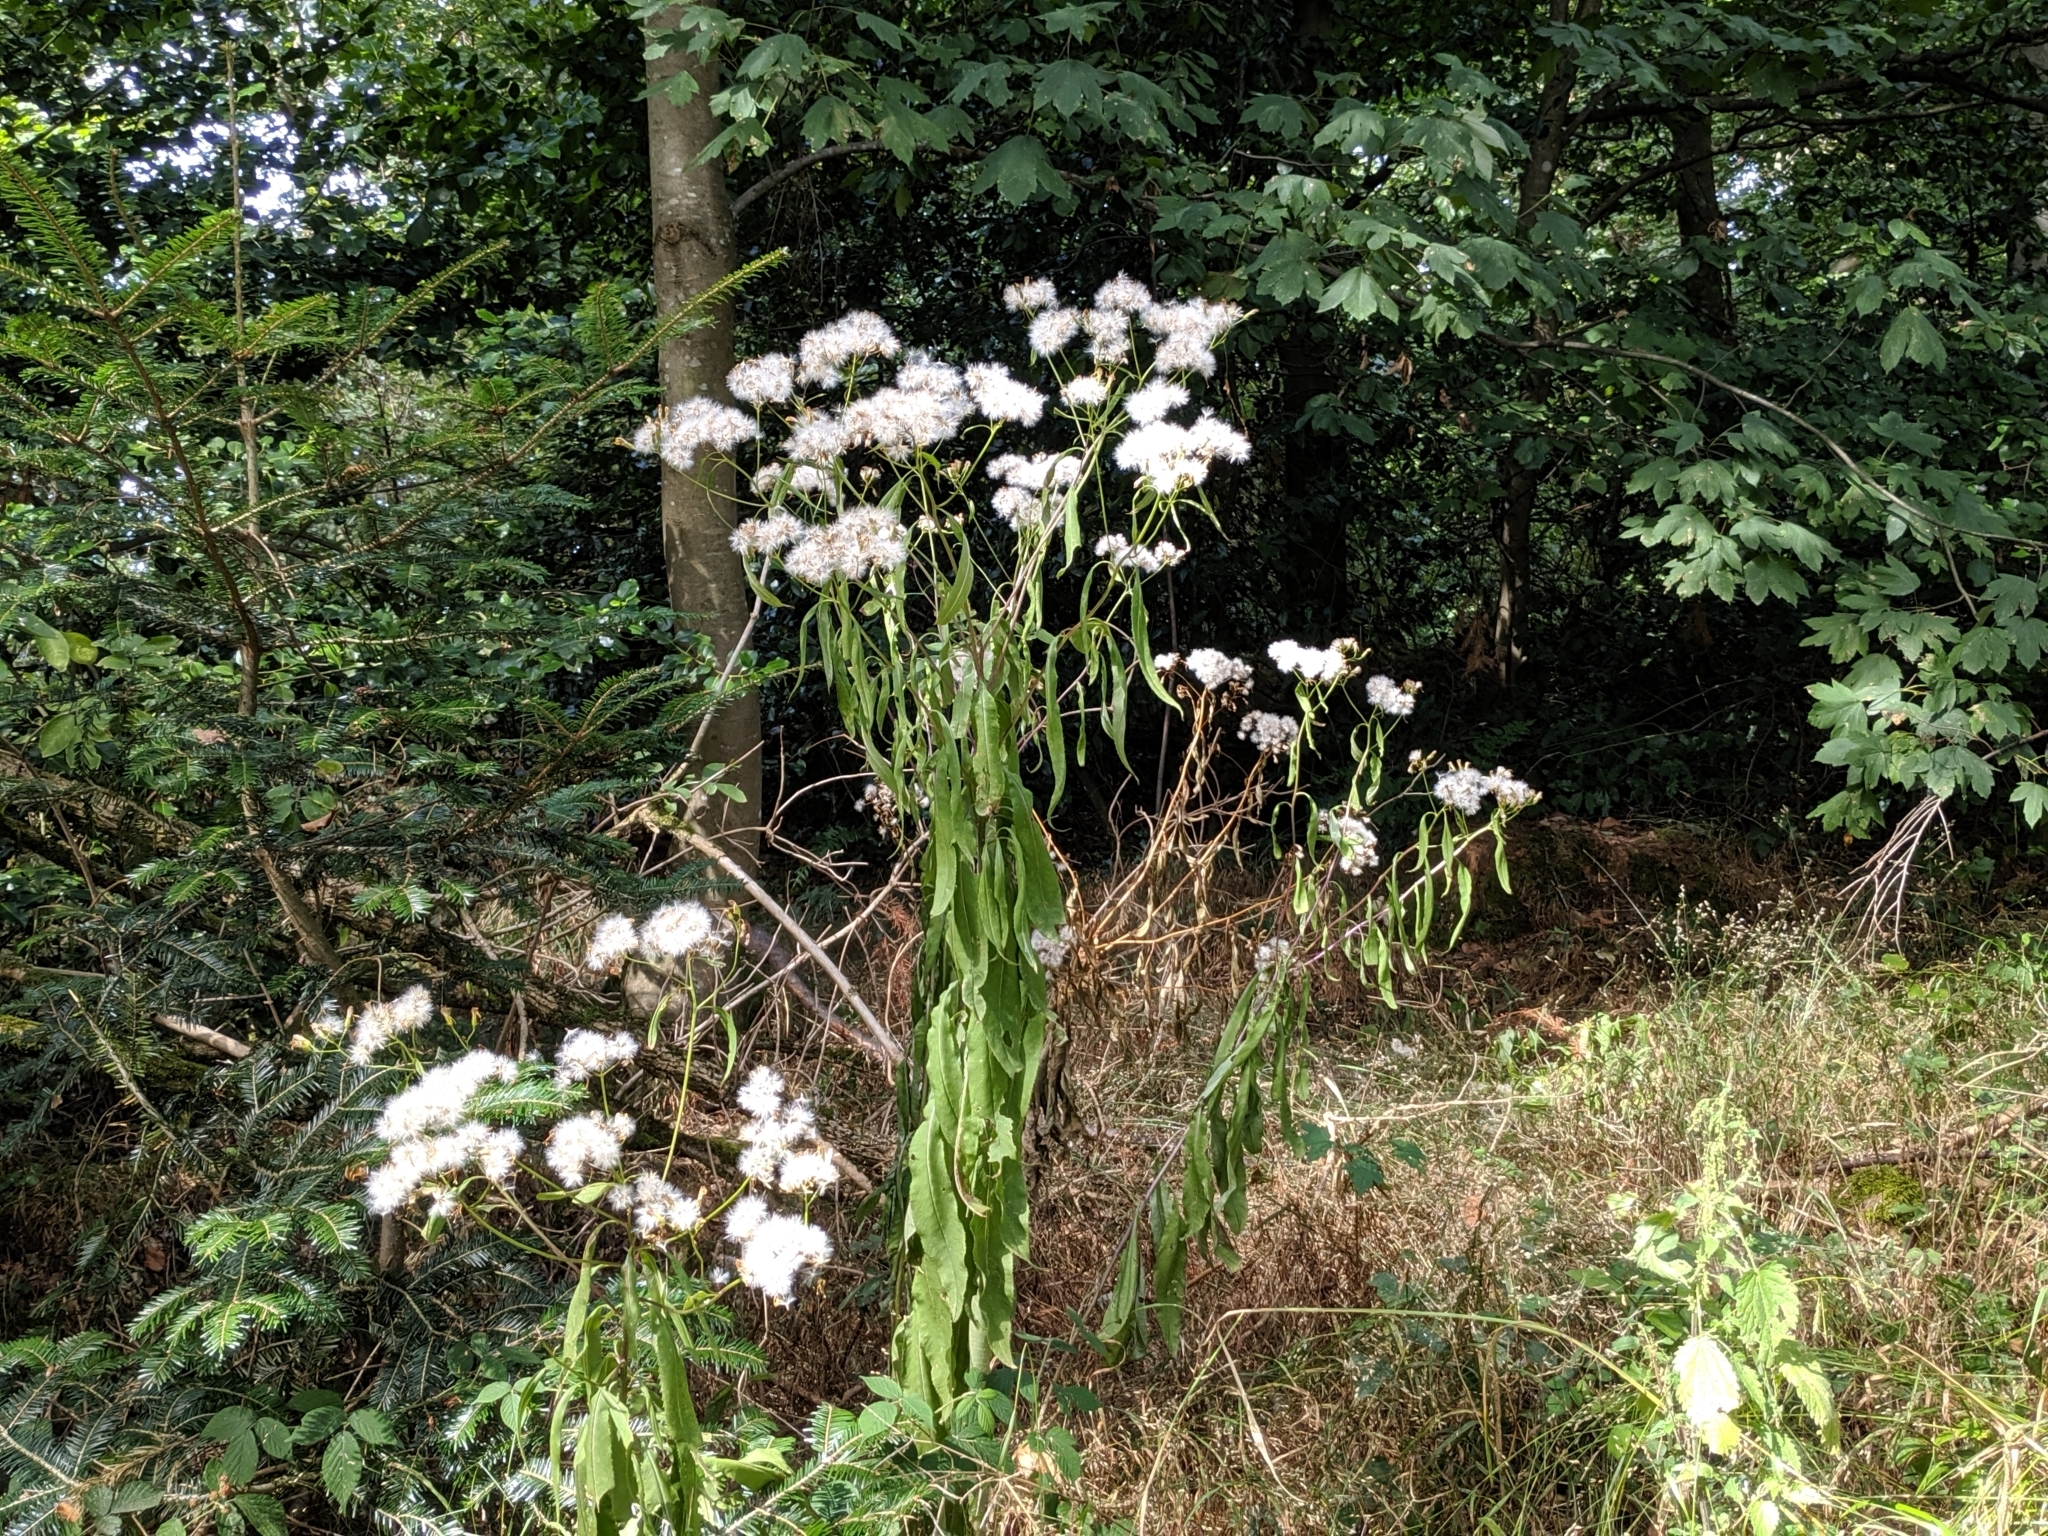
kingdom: Plantae
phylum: Tracheophyta
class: Magnoliopsida
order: Asterales
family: Asteraceae
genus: Senecio
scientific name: Senecio ovatus
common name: Wood ragwort
